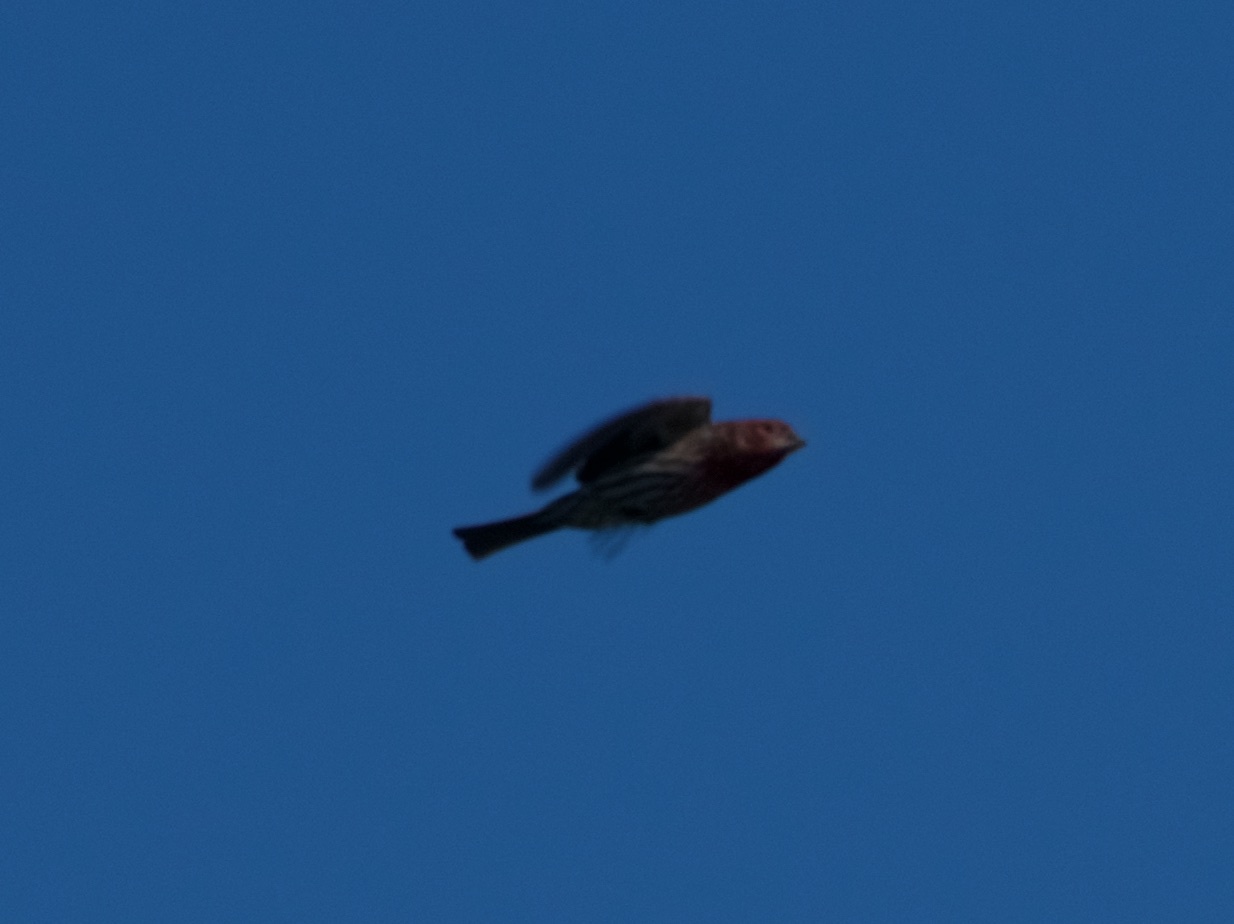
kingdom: Animalia
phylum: Chordata
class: Aves
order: Passeriformes
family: Fringillidae
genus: Haemorhous
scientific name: Haemorhous mexicanus
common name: House finch
